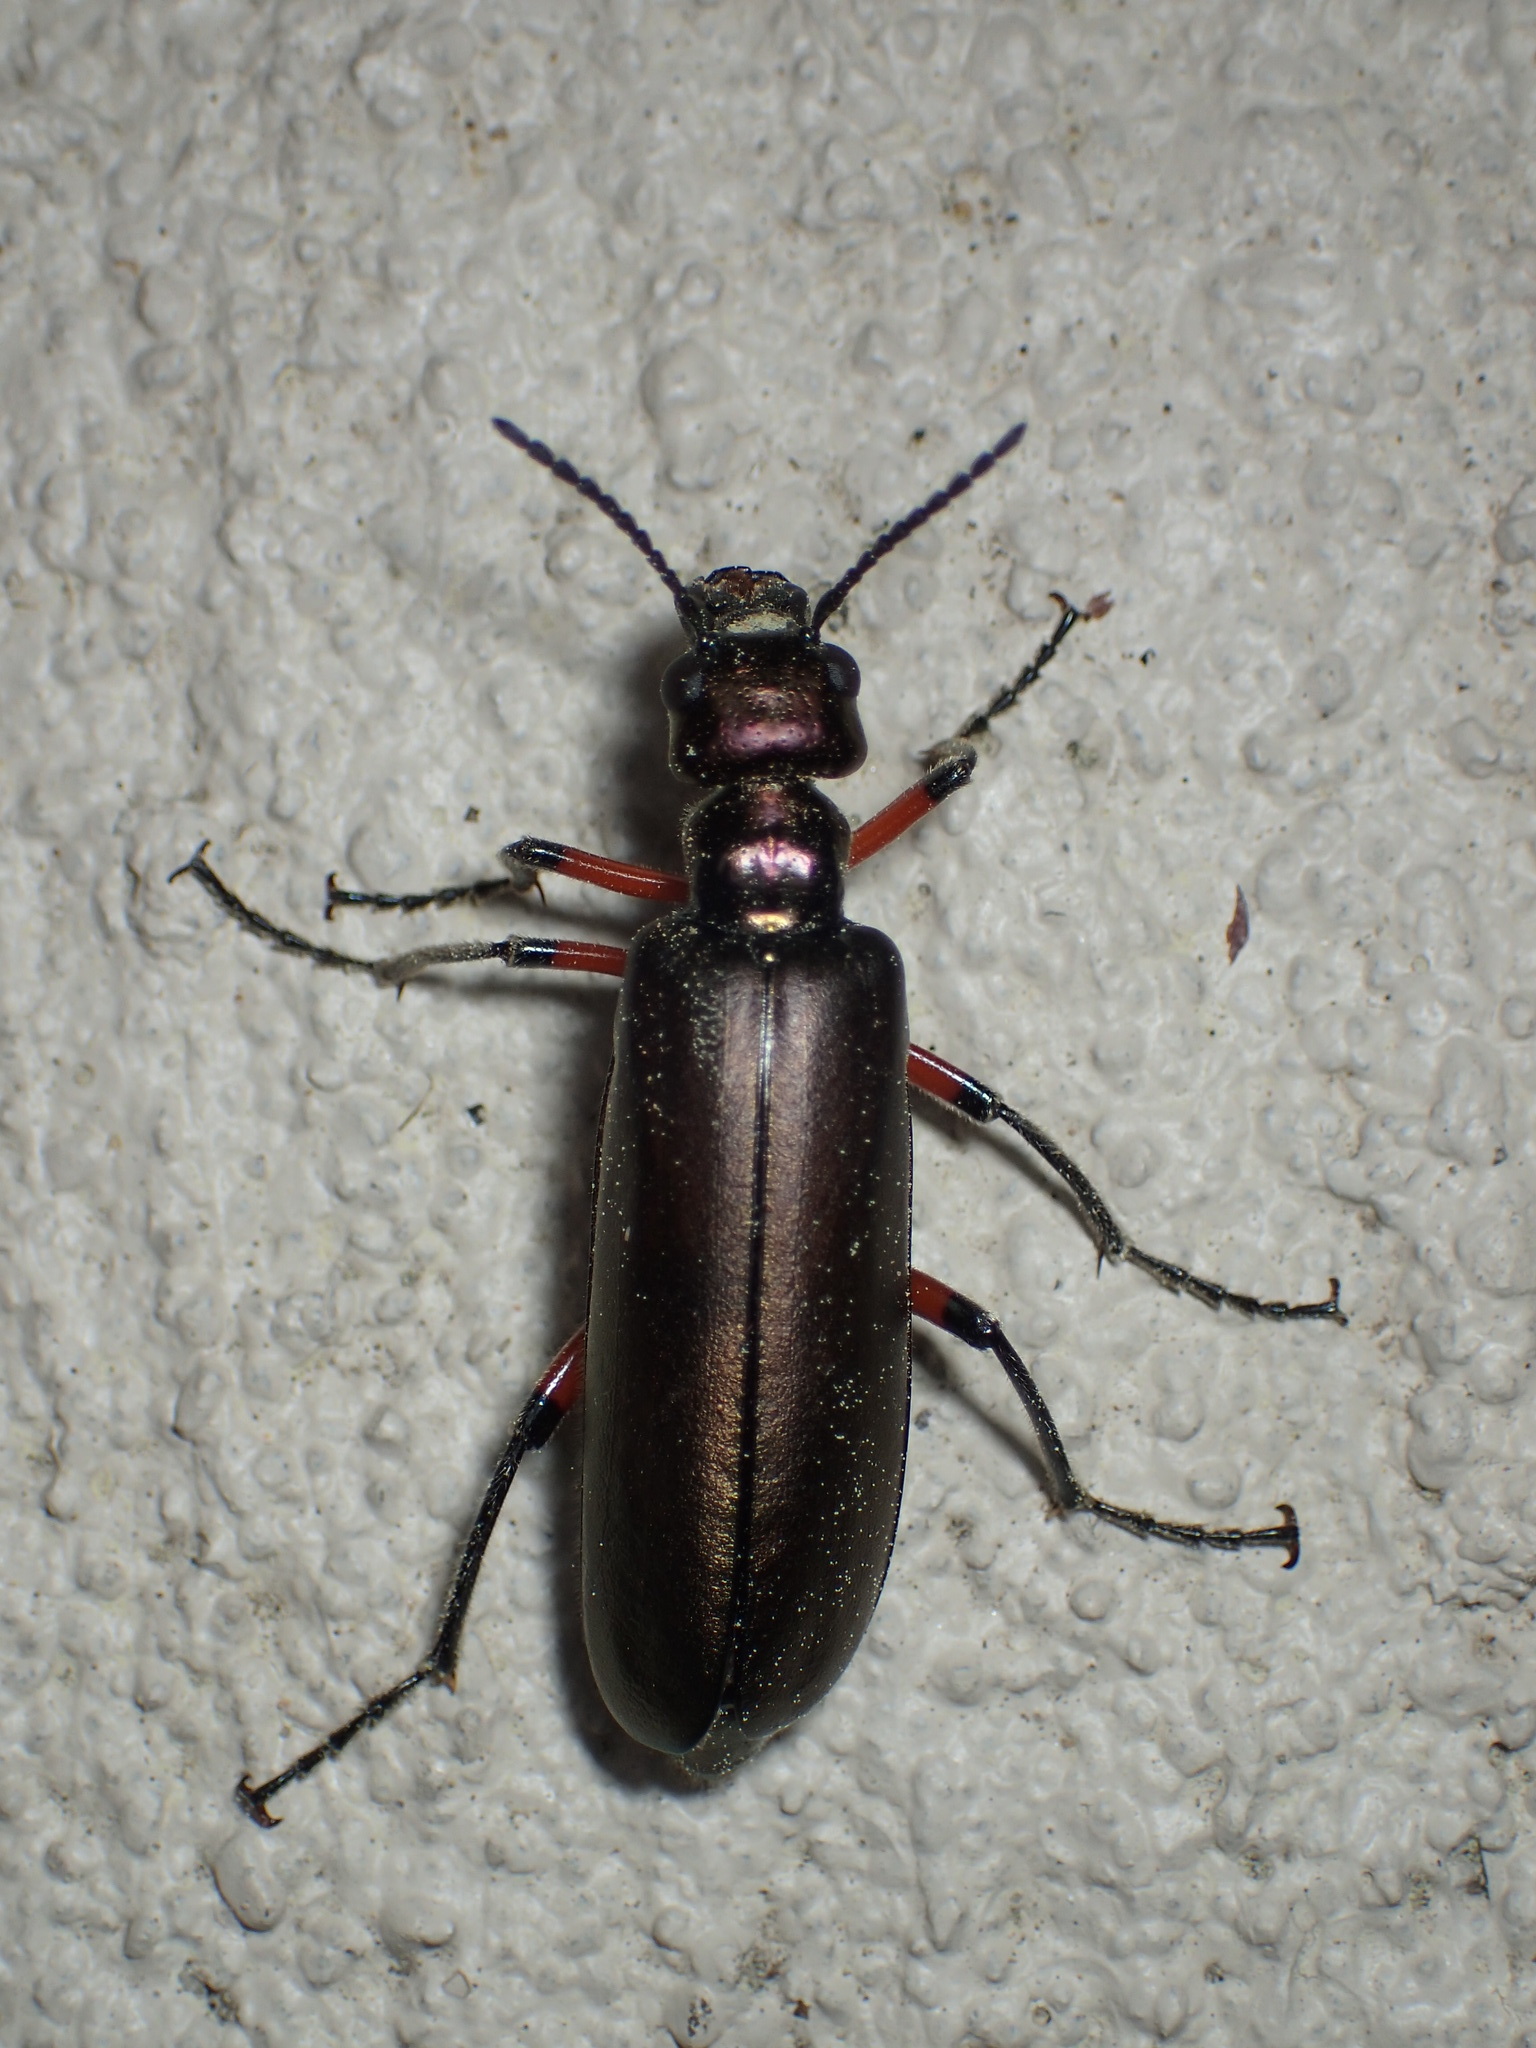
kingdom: Animalia
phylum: Arthropoda
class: Insecta
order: Coleoptera
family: Meloidae
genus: Lytta
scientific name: Lytta polita
